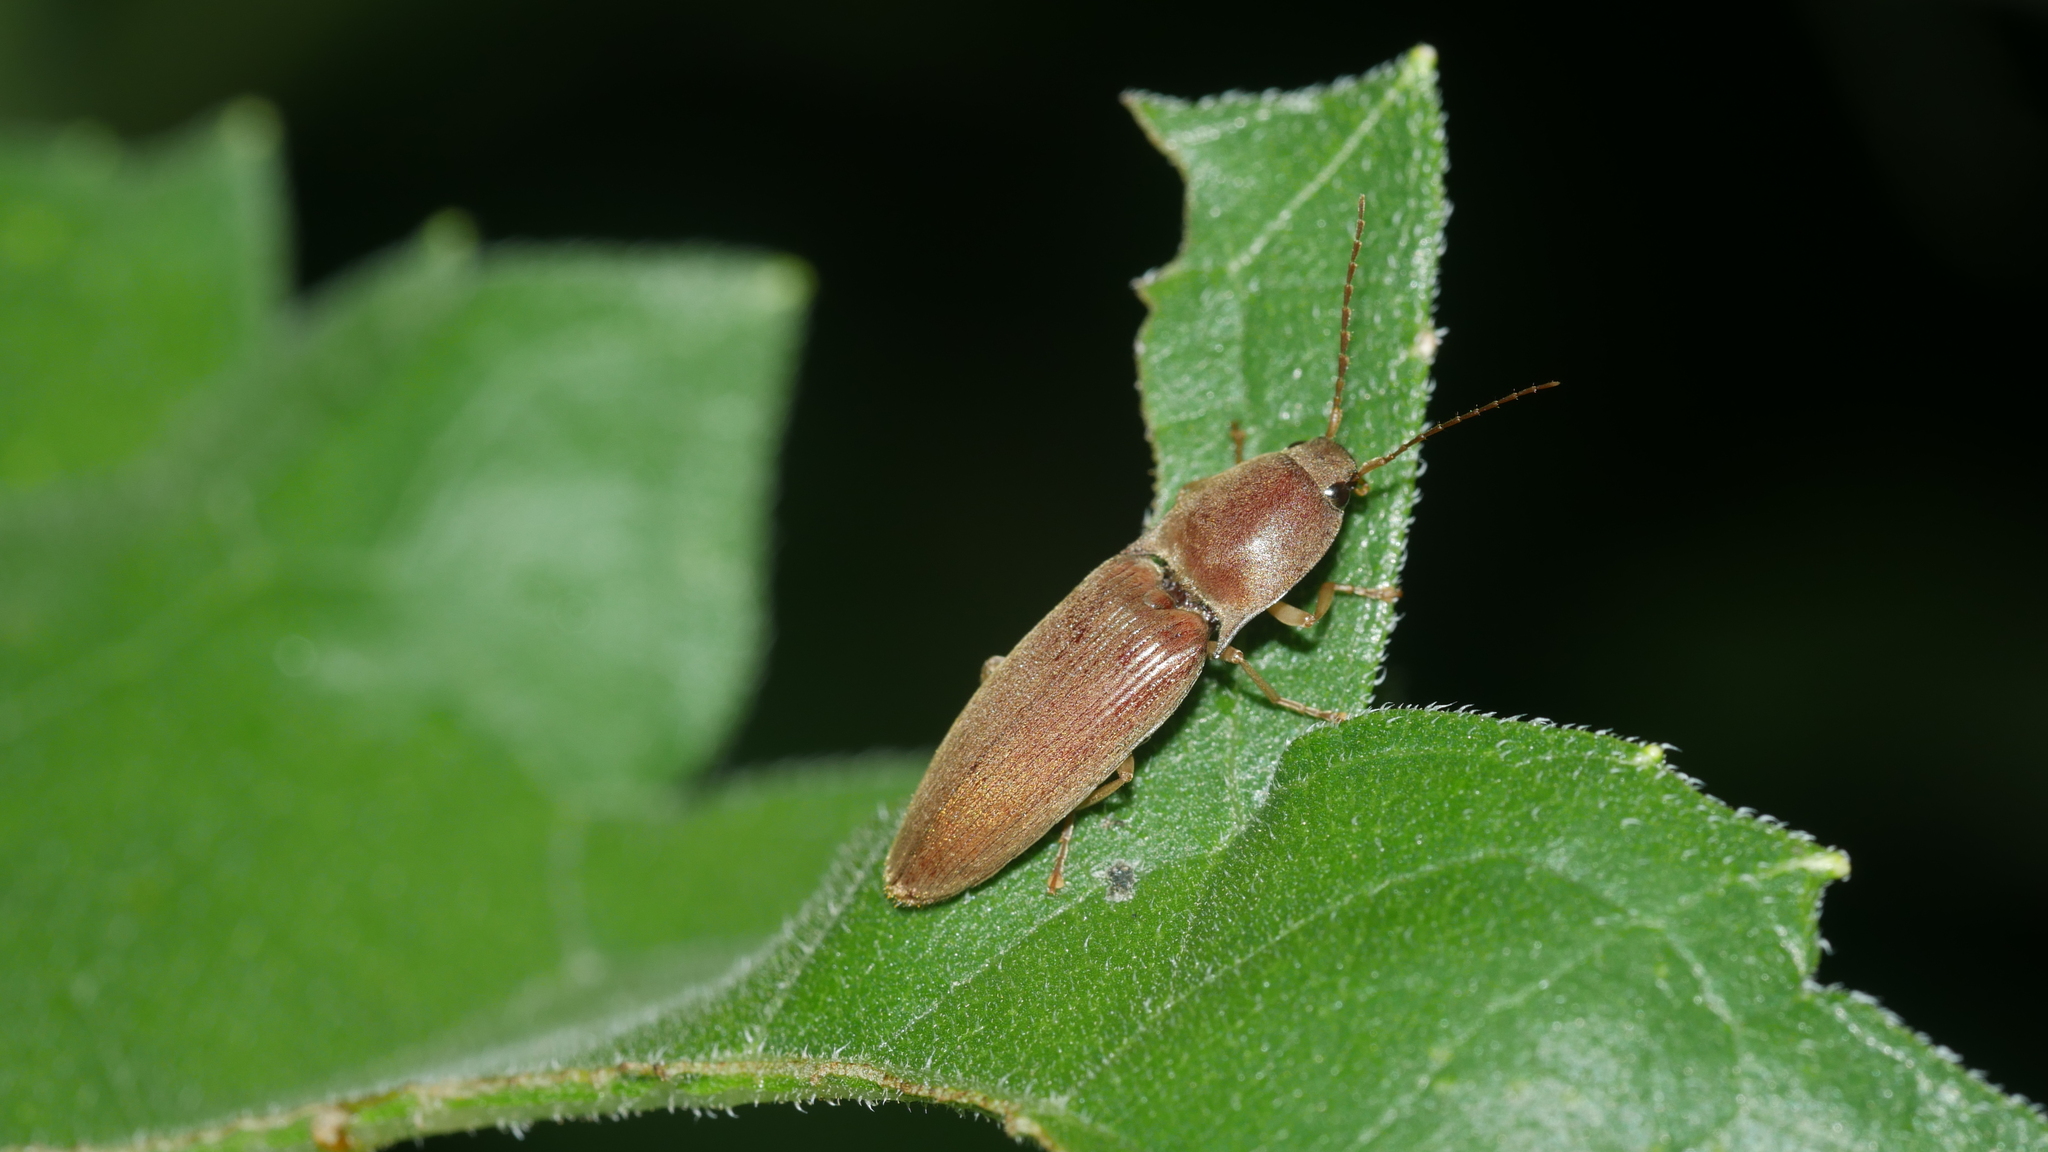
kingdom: Animalia
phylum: Arthropoda
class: Insecta
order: Coleoptera
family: Elateridae
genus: Monocrepidius
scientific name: Monocrepidius lividus
